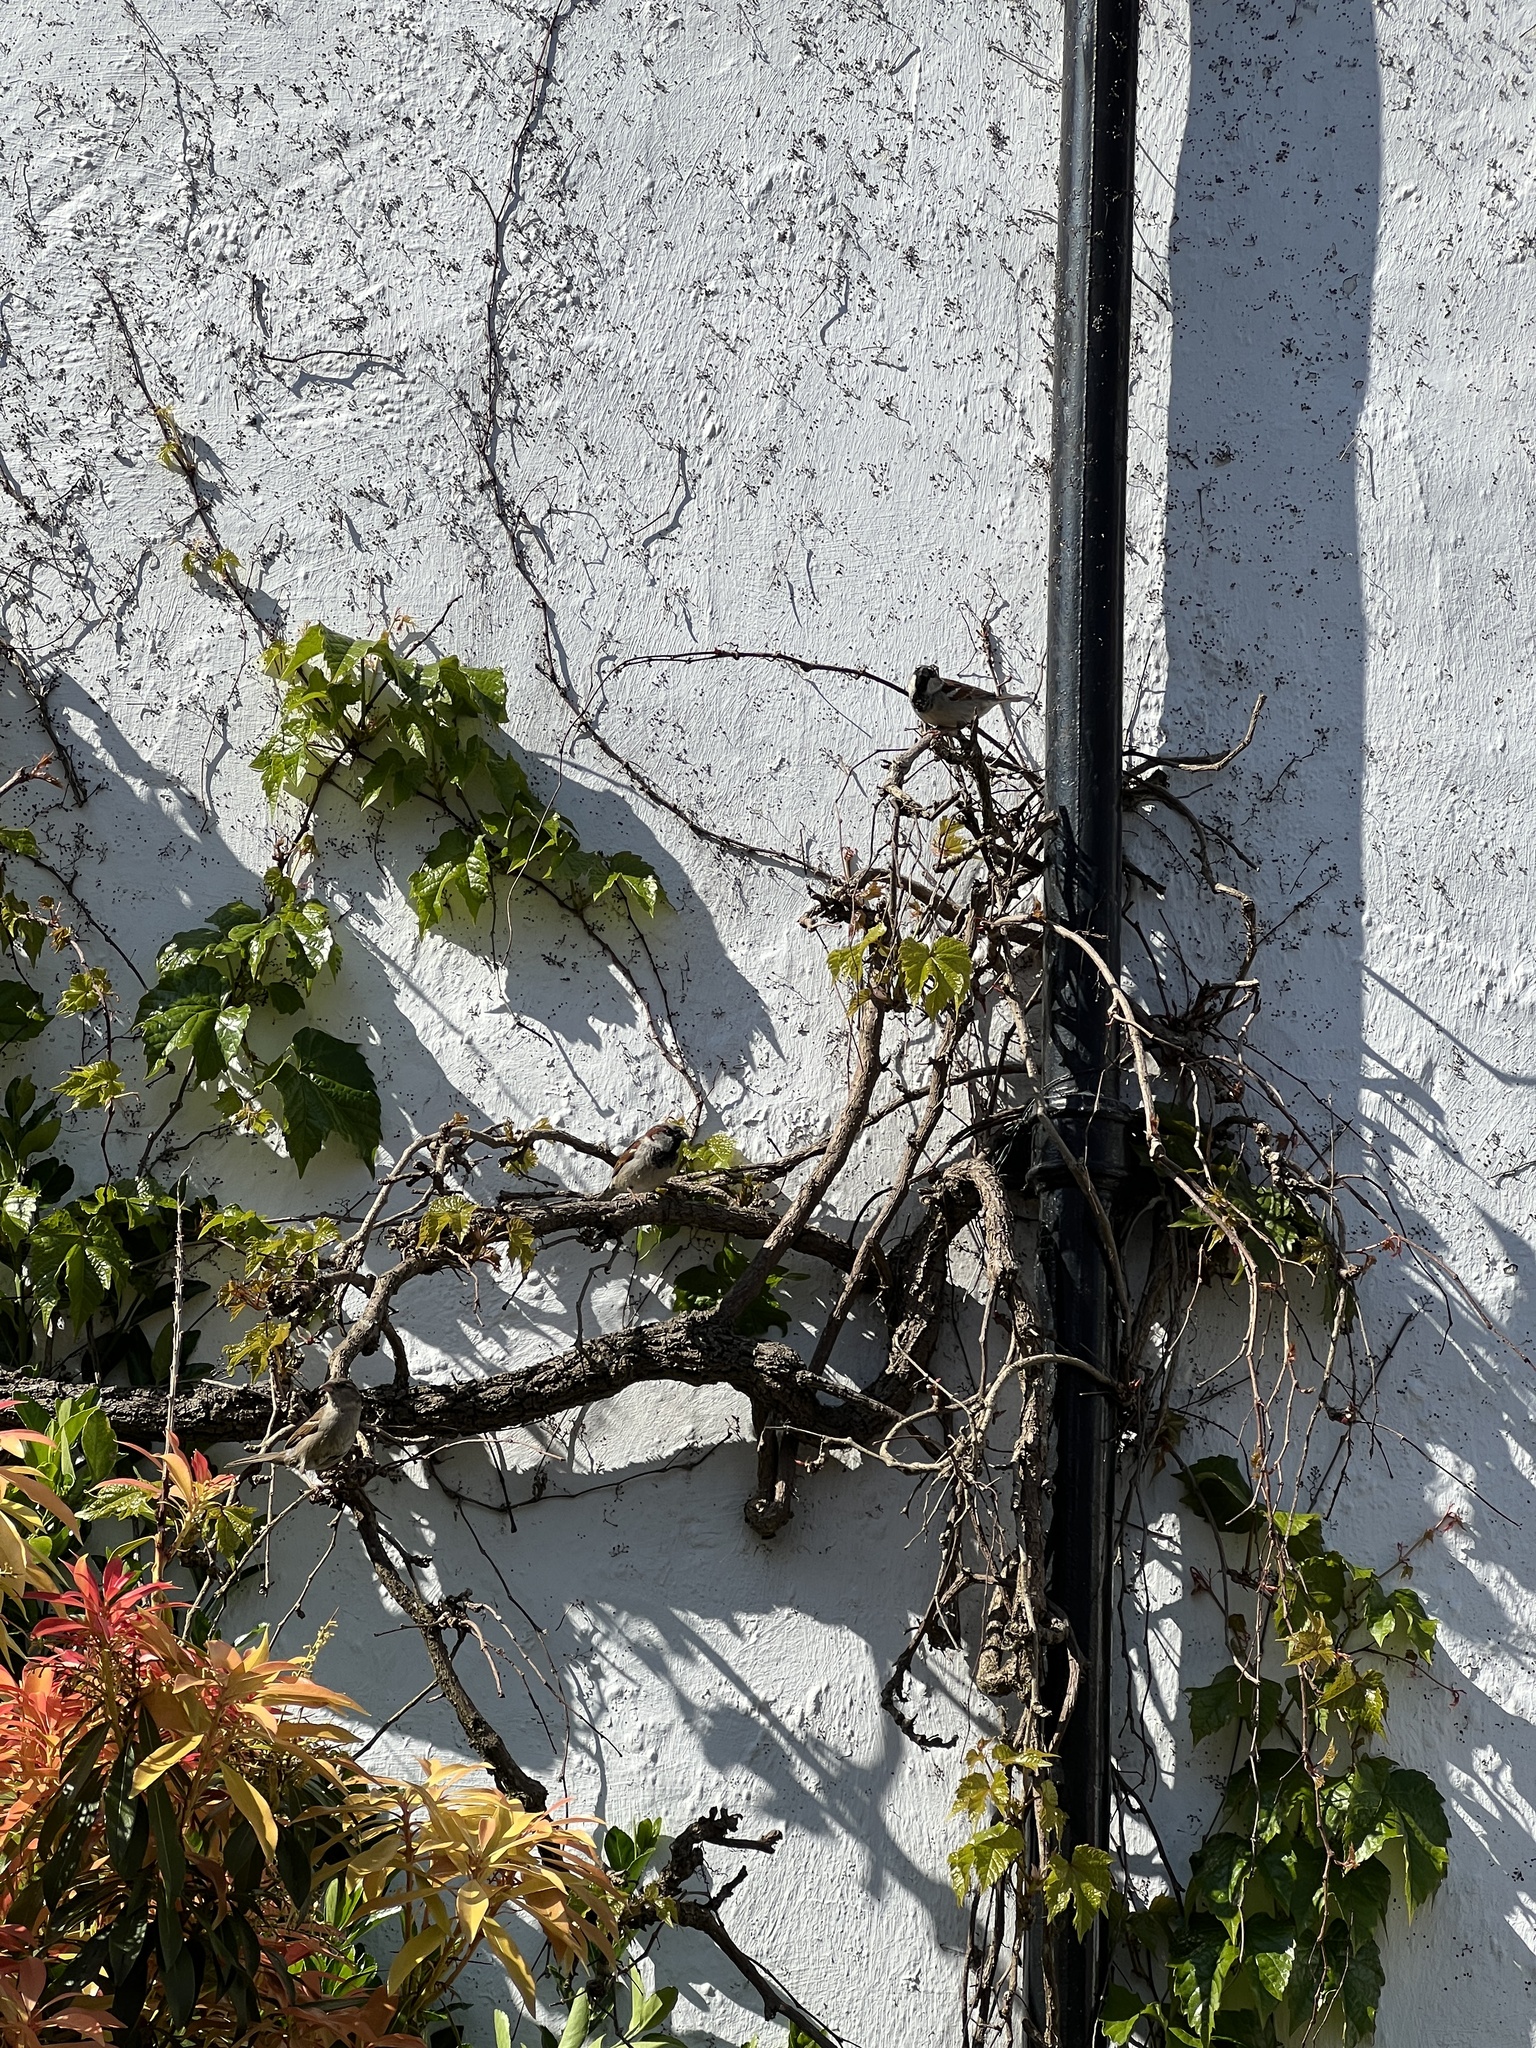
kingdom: Animalia
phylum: Chordata
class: Aves
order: Passeriformes
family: Passeridae
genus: Passer
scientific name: Passer domesticus
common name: House sparrow
